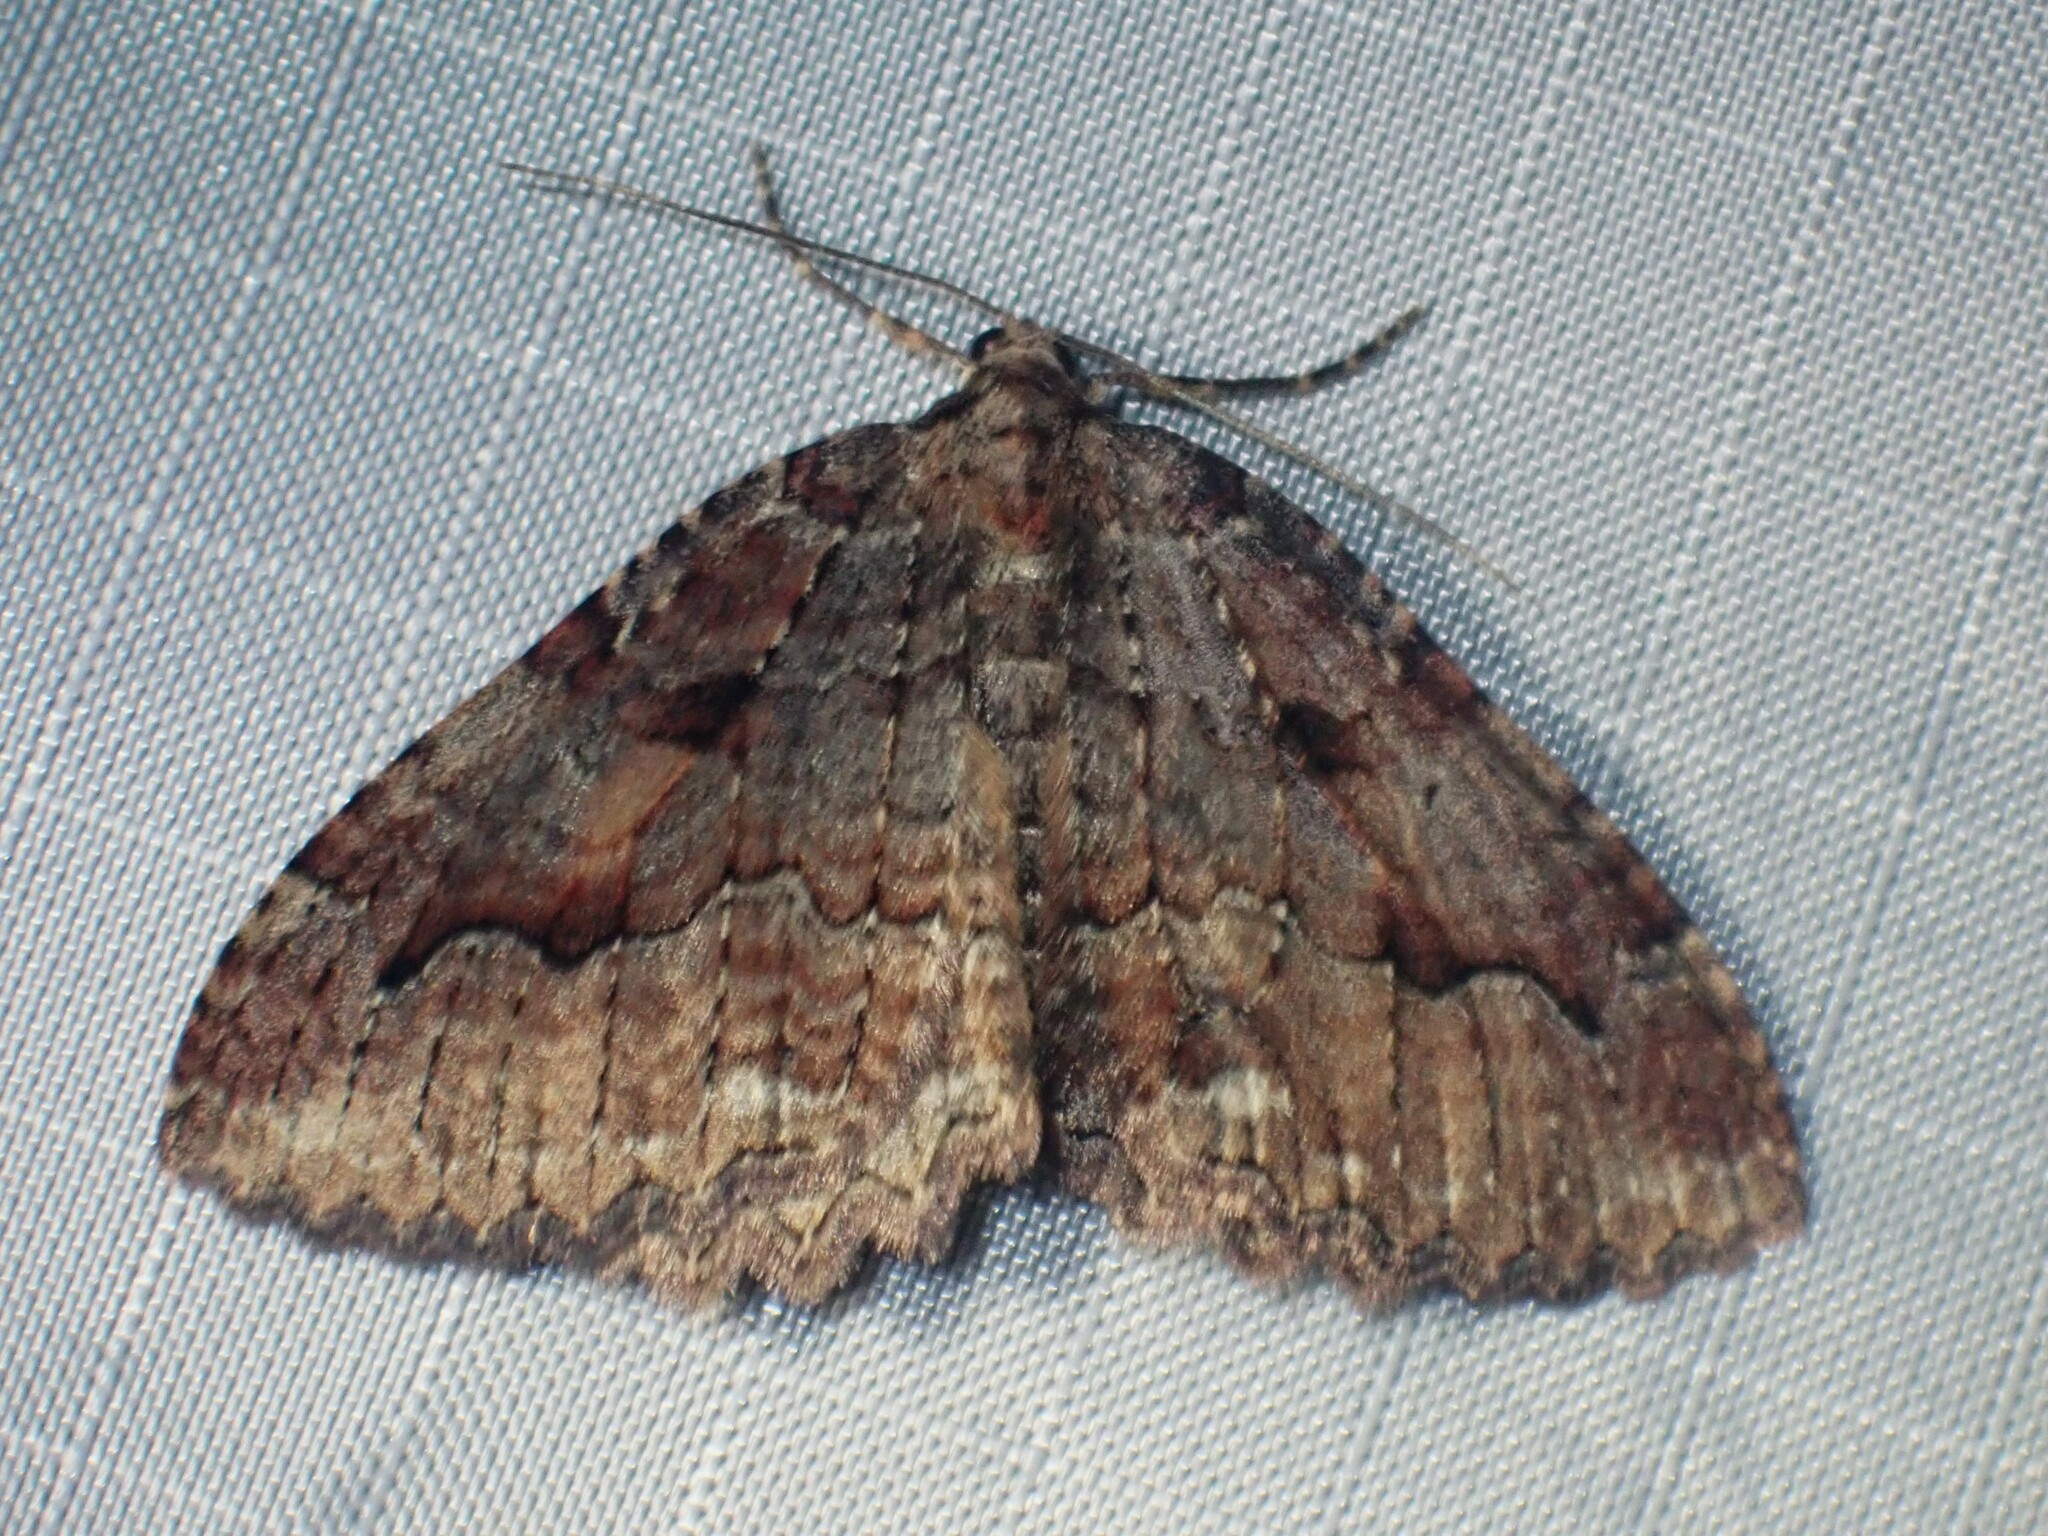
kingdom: Animalia
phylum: Arthropoda
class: Insecta
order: Lepidoptera
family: Geometridae
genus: Triphosa
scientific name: Triphosa haesitata
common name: Tissue moth
